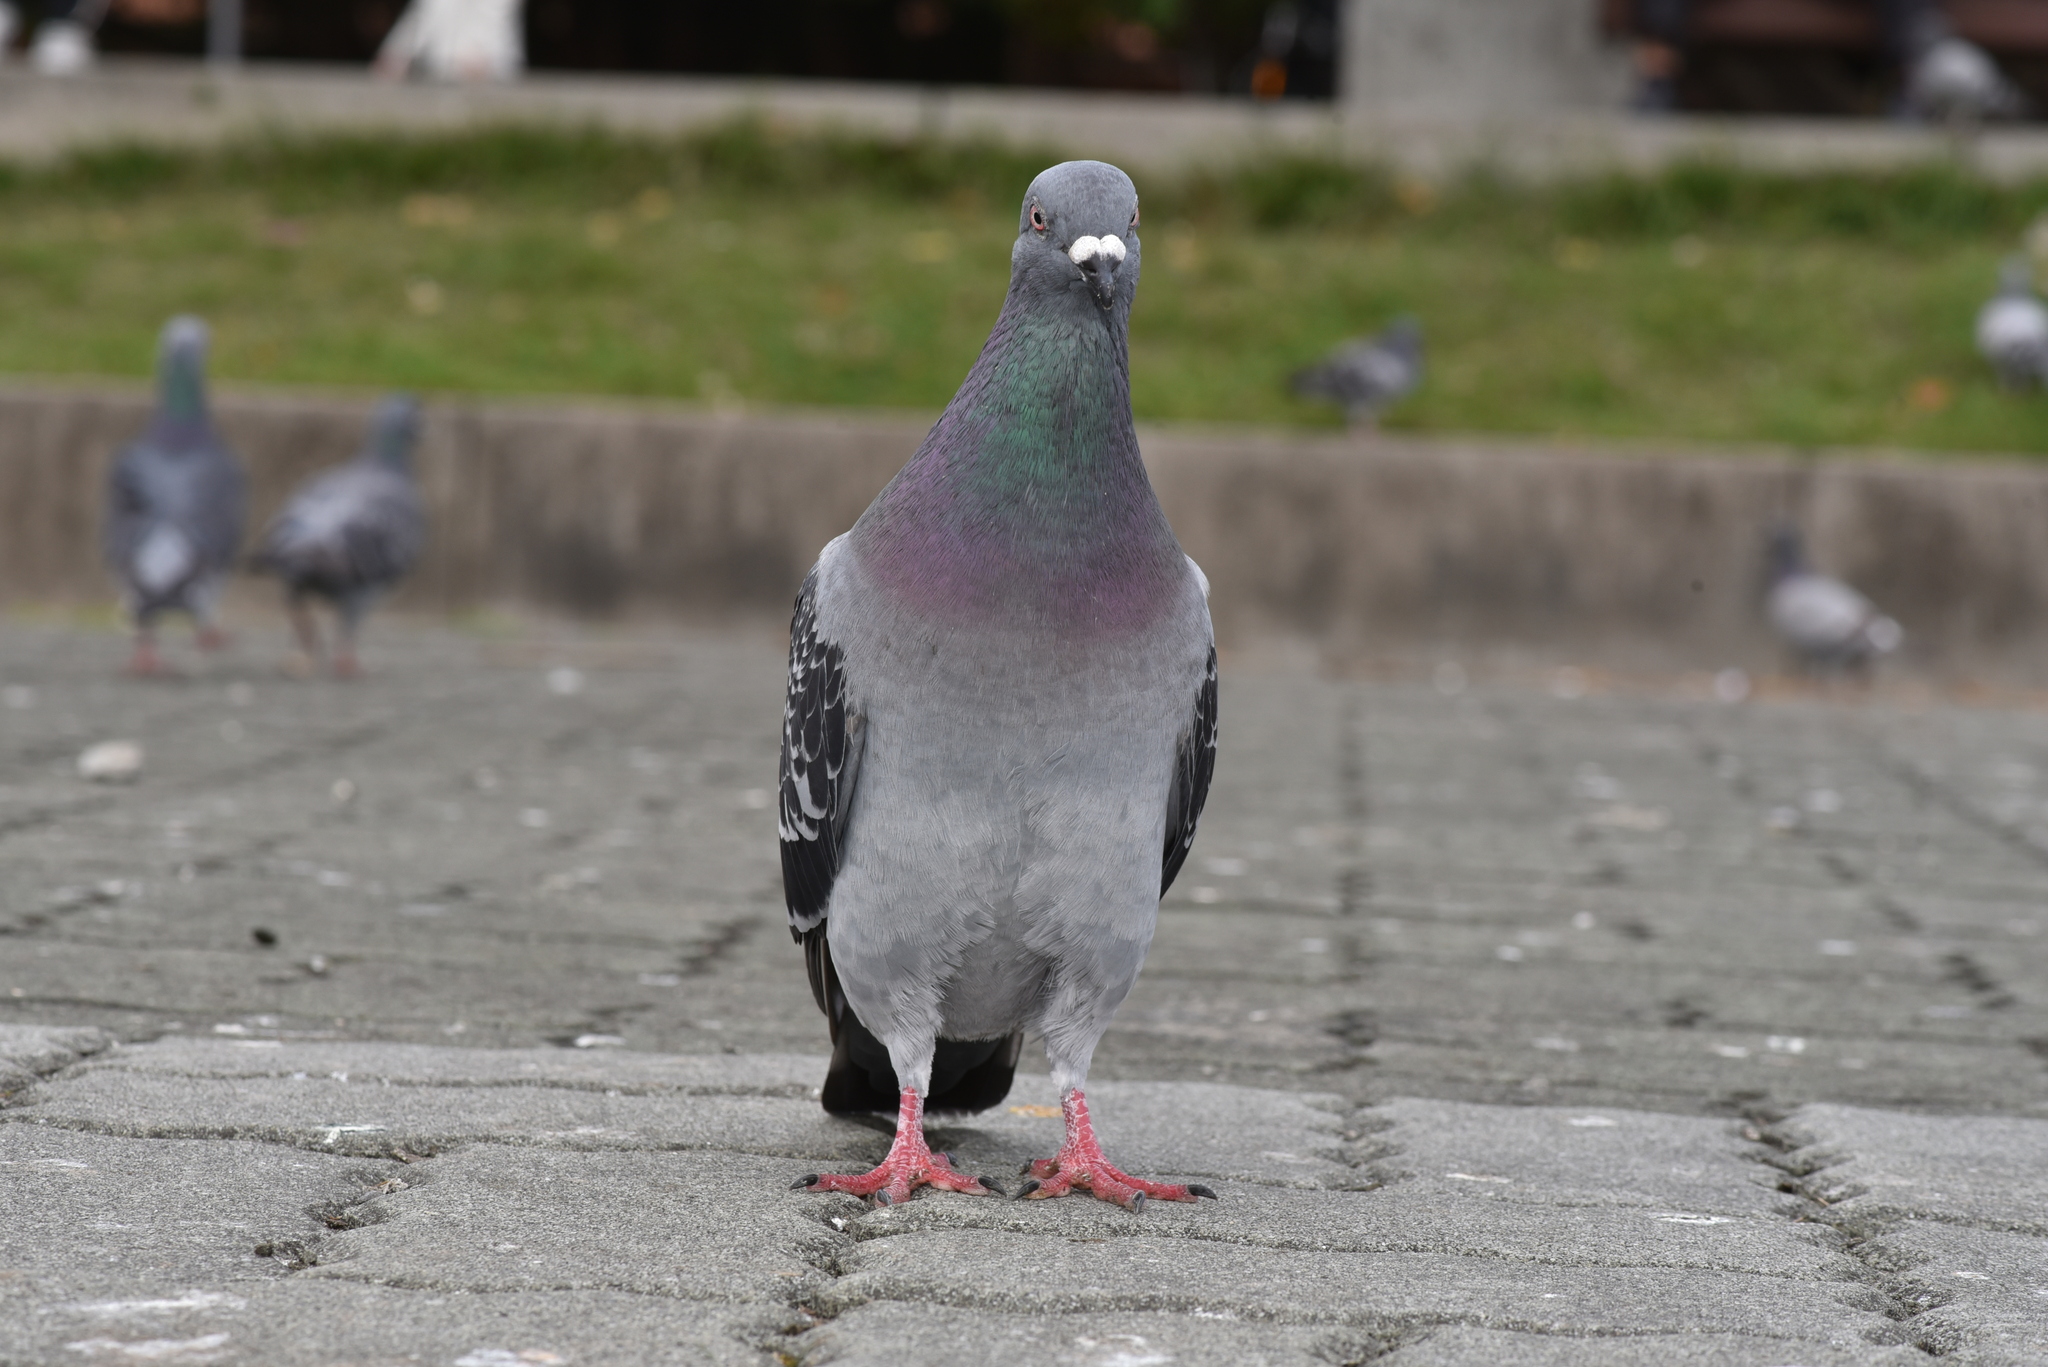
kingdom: Animalia
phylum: Chordata
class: Aves
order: Columbiformes
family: Columbidae
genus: Columba
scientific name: Columba livia
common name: Rock pigeon
